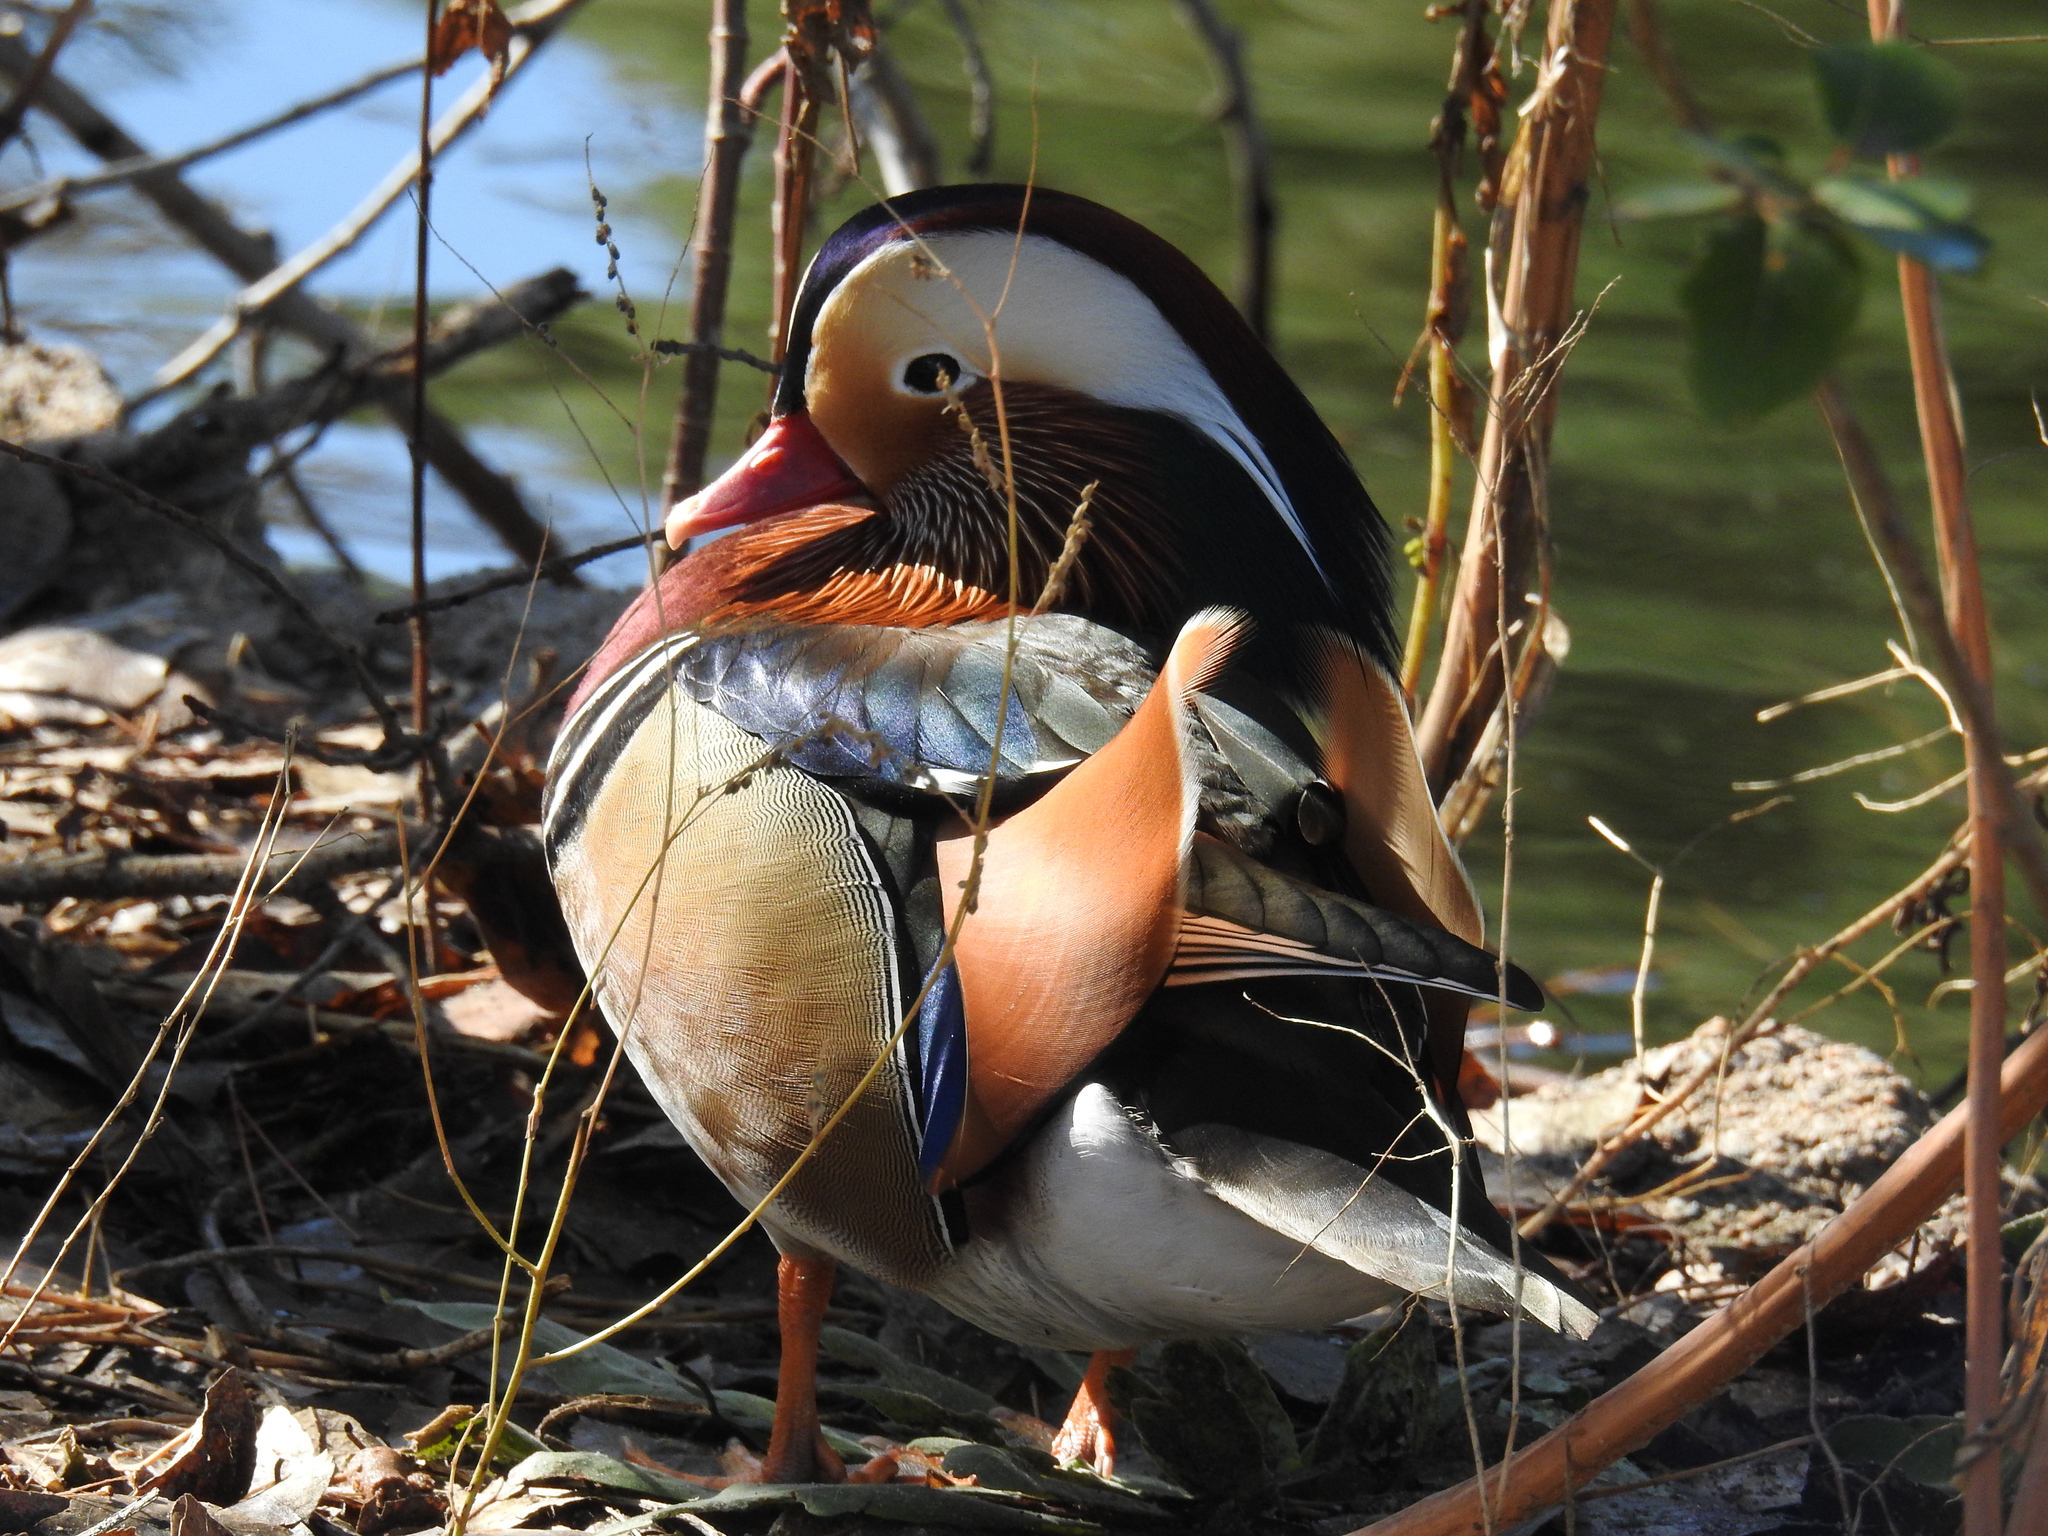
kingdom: Animalia
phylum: Chordata
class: Aves
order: Anseriformes
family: Anatidae
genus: Aix
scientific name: Aix galericulata
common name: Mandarin duck
